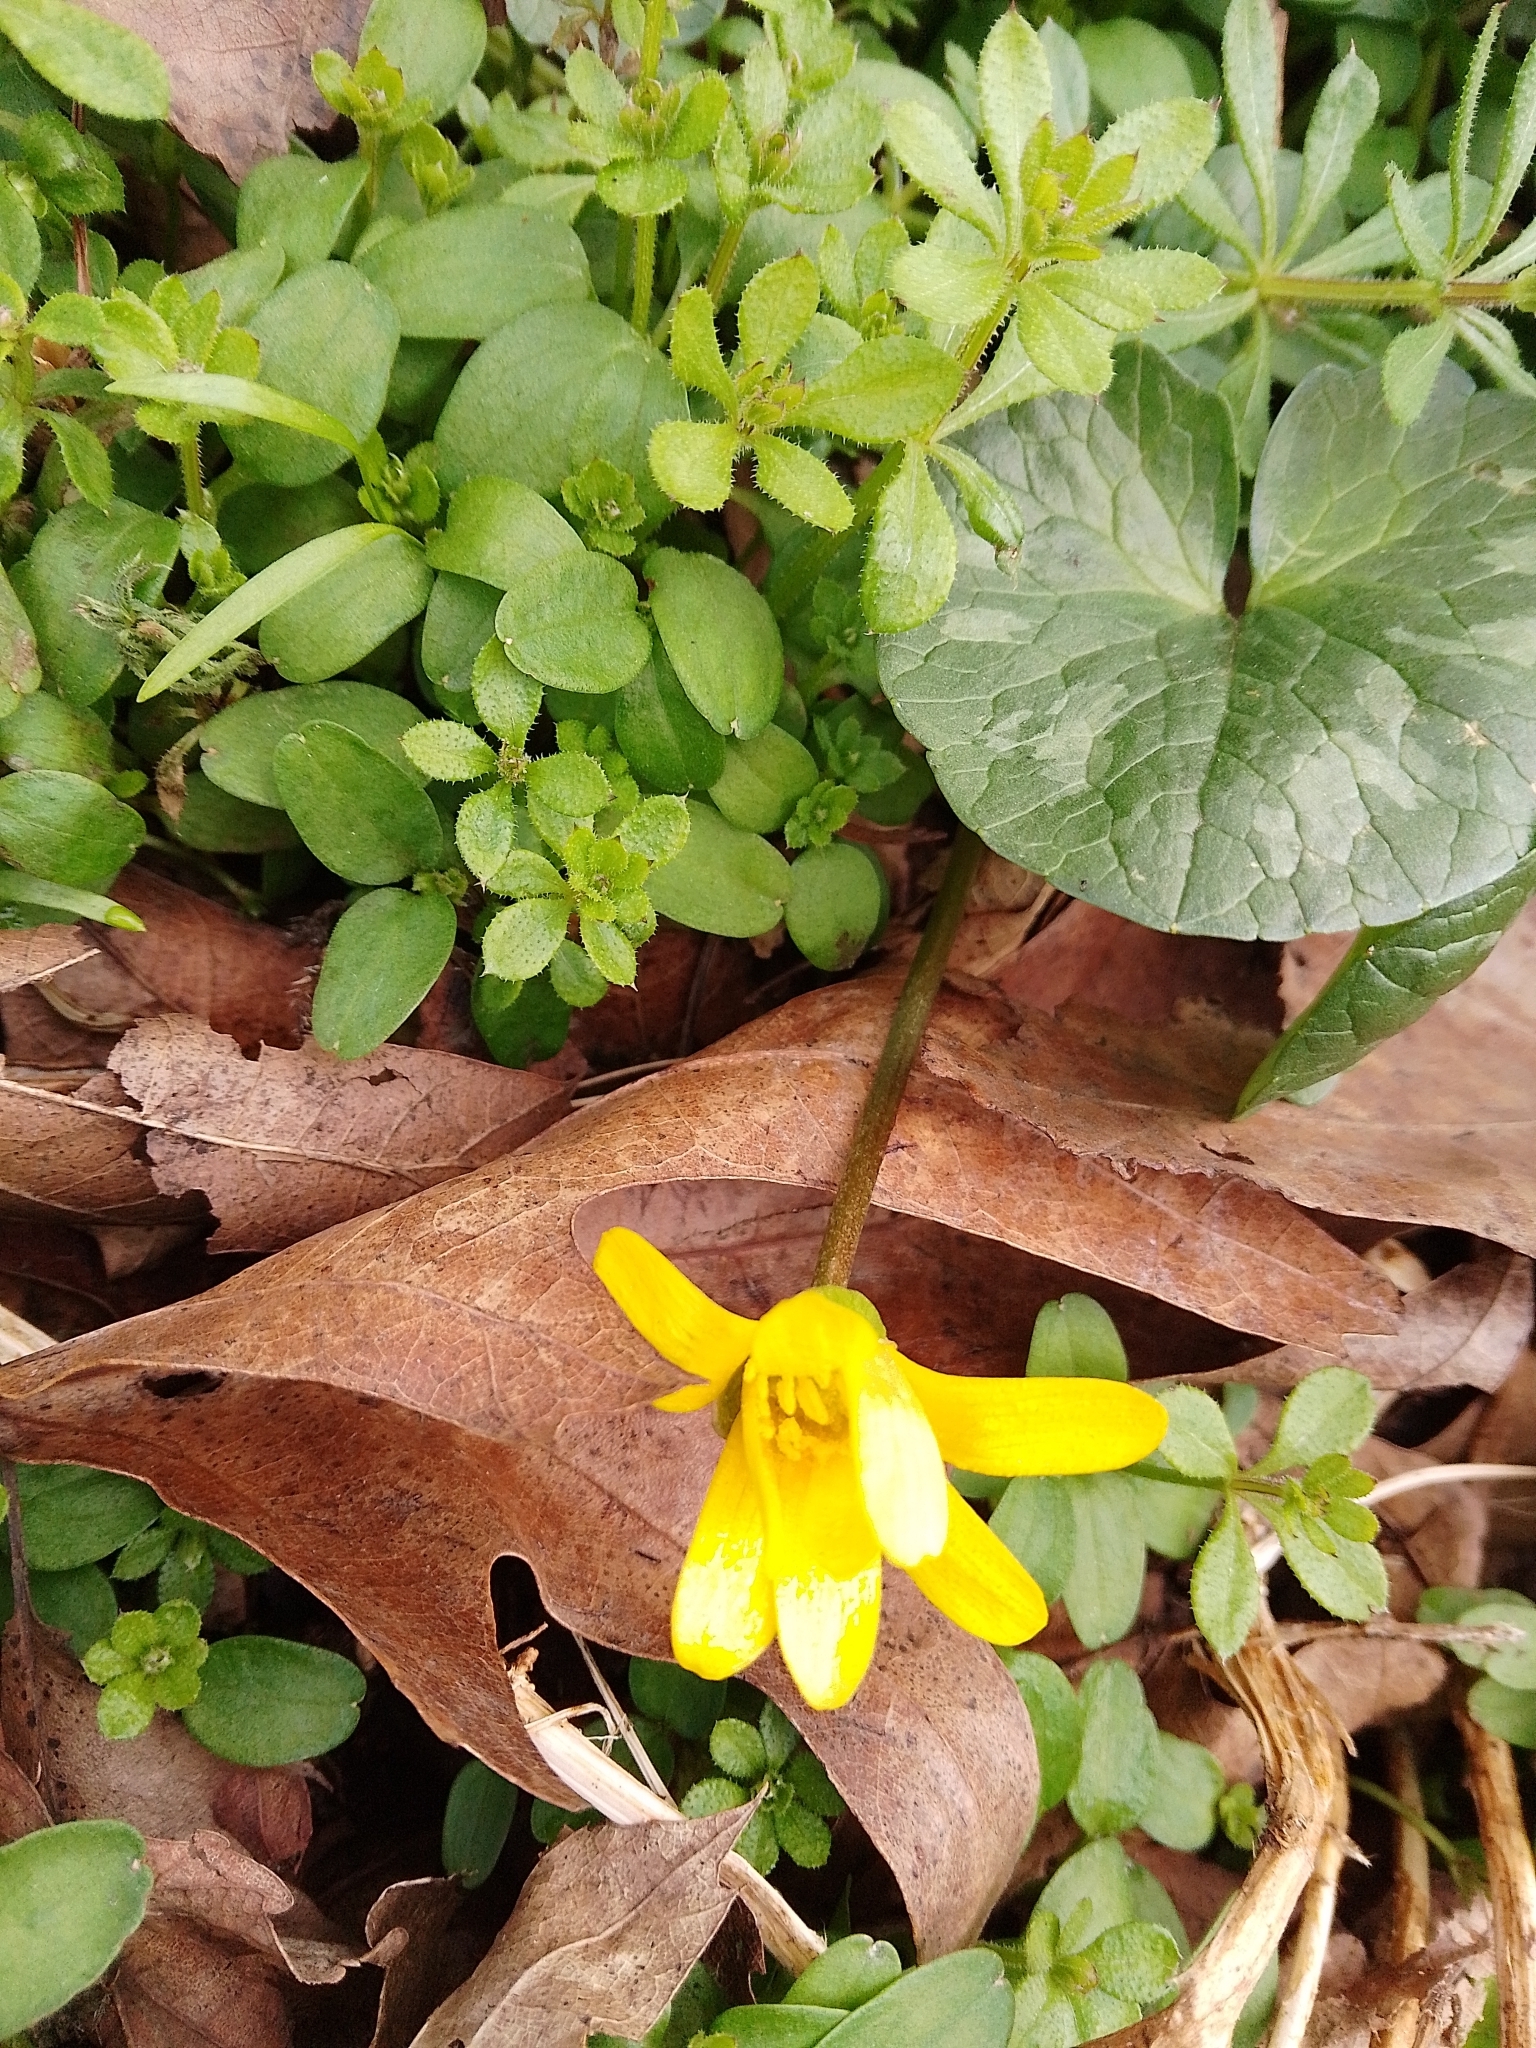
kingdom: Plantae
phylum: Tracheophyta
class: Magnoliopsida
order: Ranunculales
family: Ranunculaceae
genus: Ficaria
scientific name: Ficaria verna
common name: Lesser celandine
